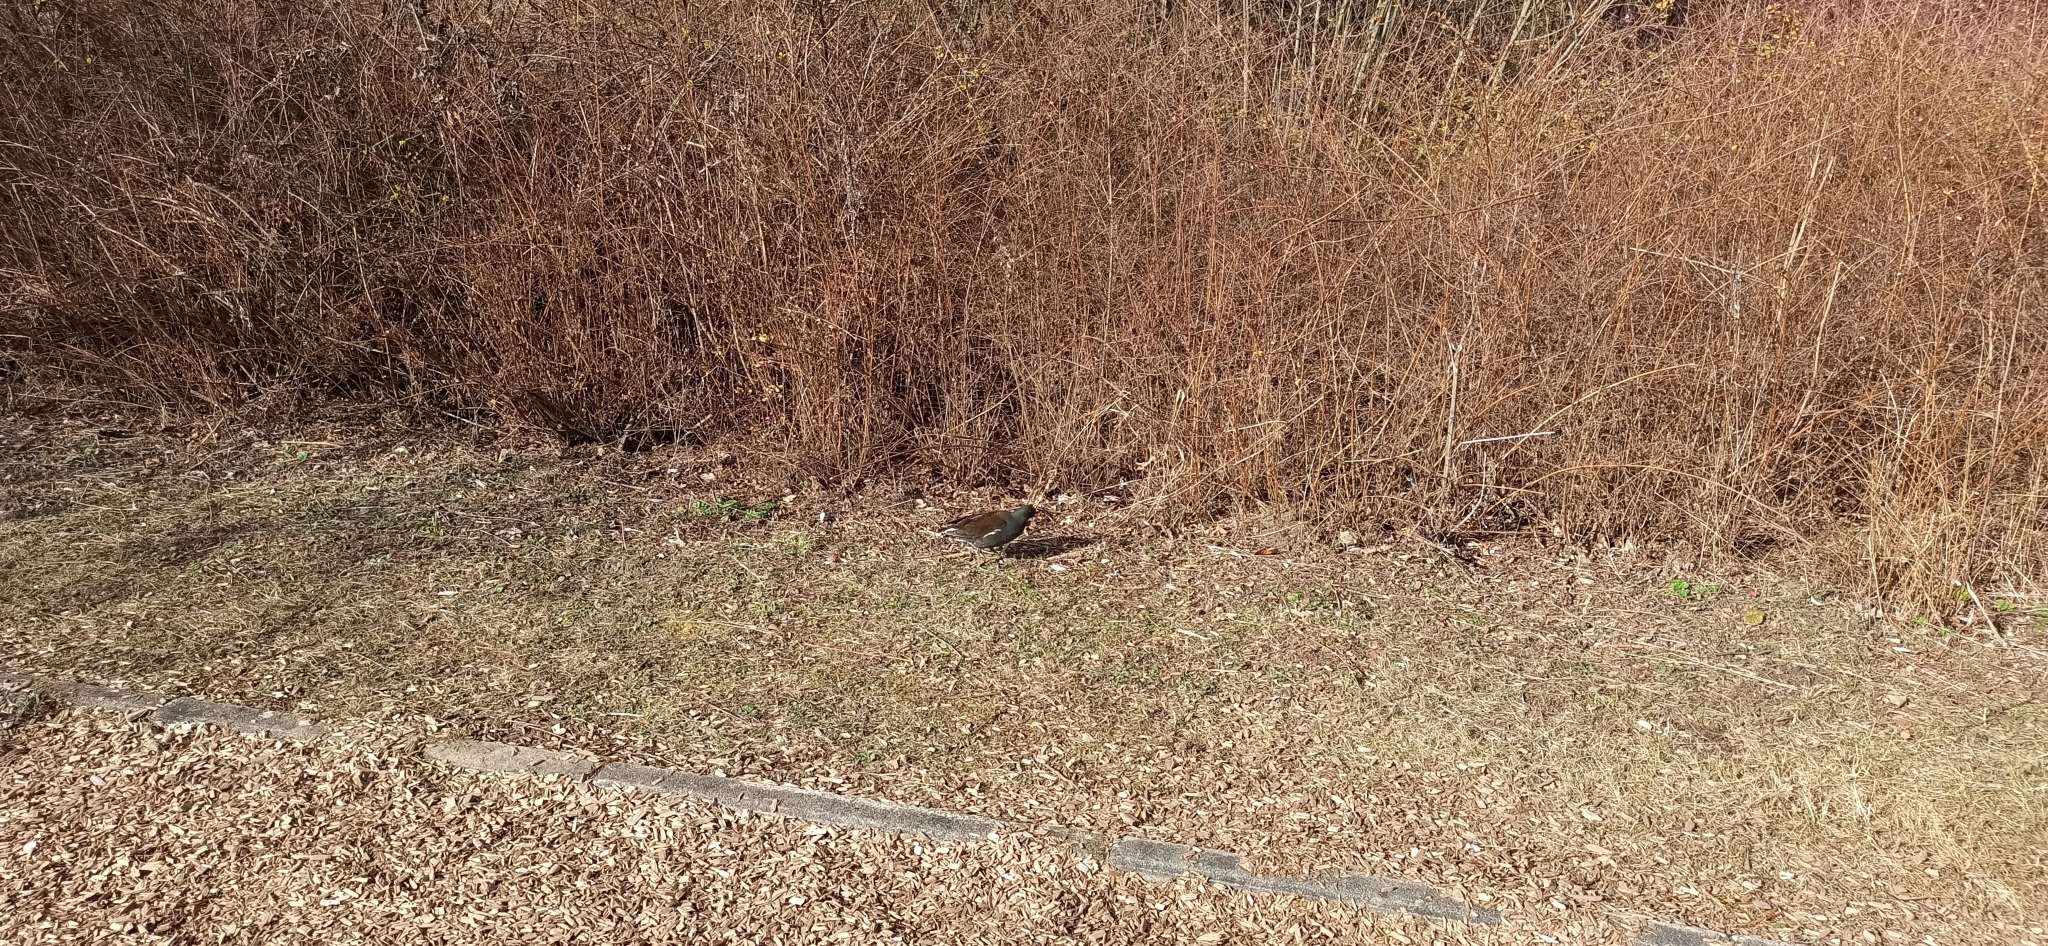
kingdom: Animalia
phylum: Chordata
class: Aves
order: Gruiformes
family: Rallidae
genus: Gallinula
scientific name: Gallinula chloropus
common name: Common moorhen
